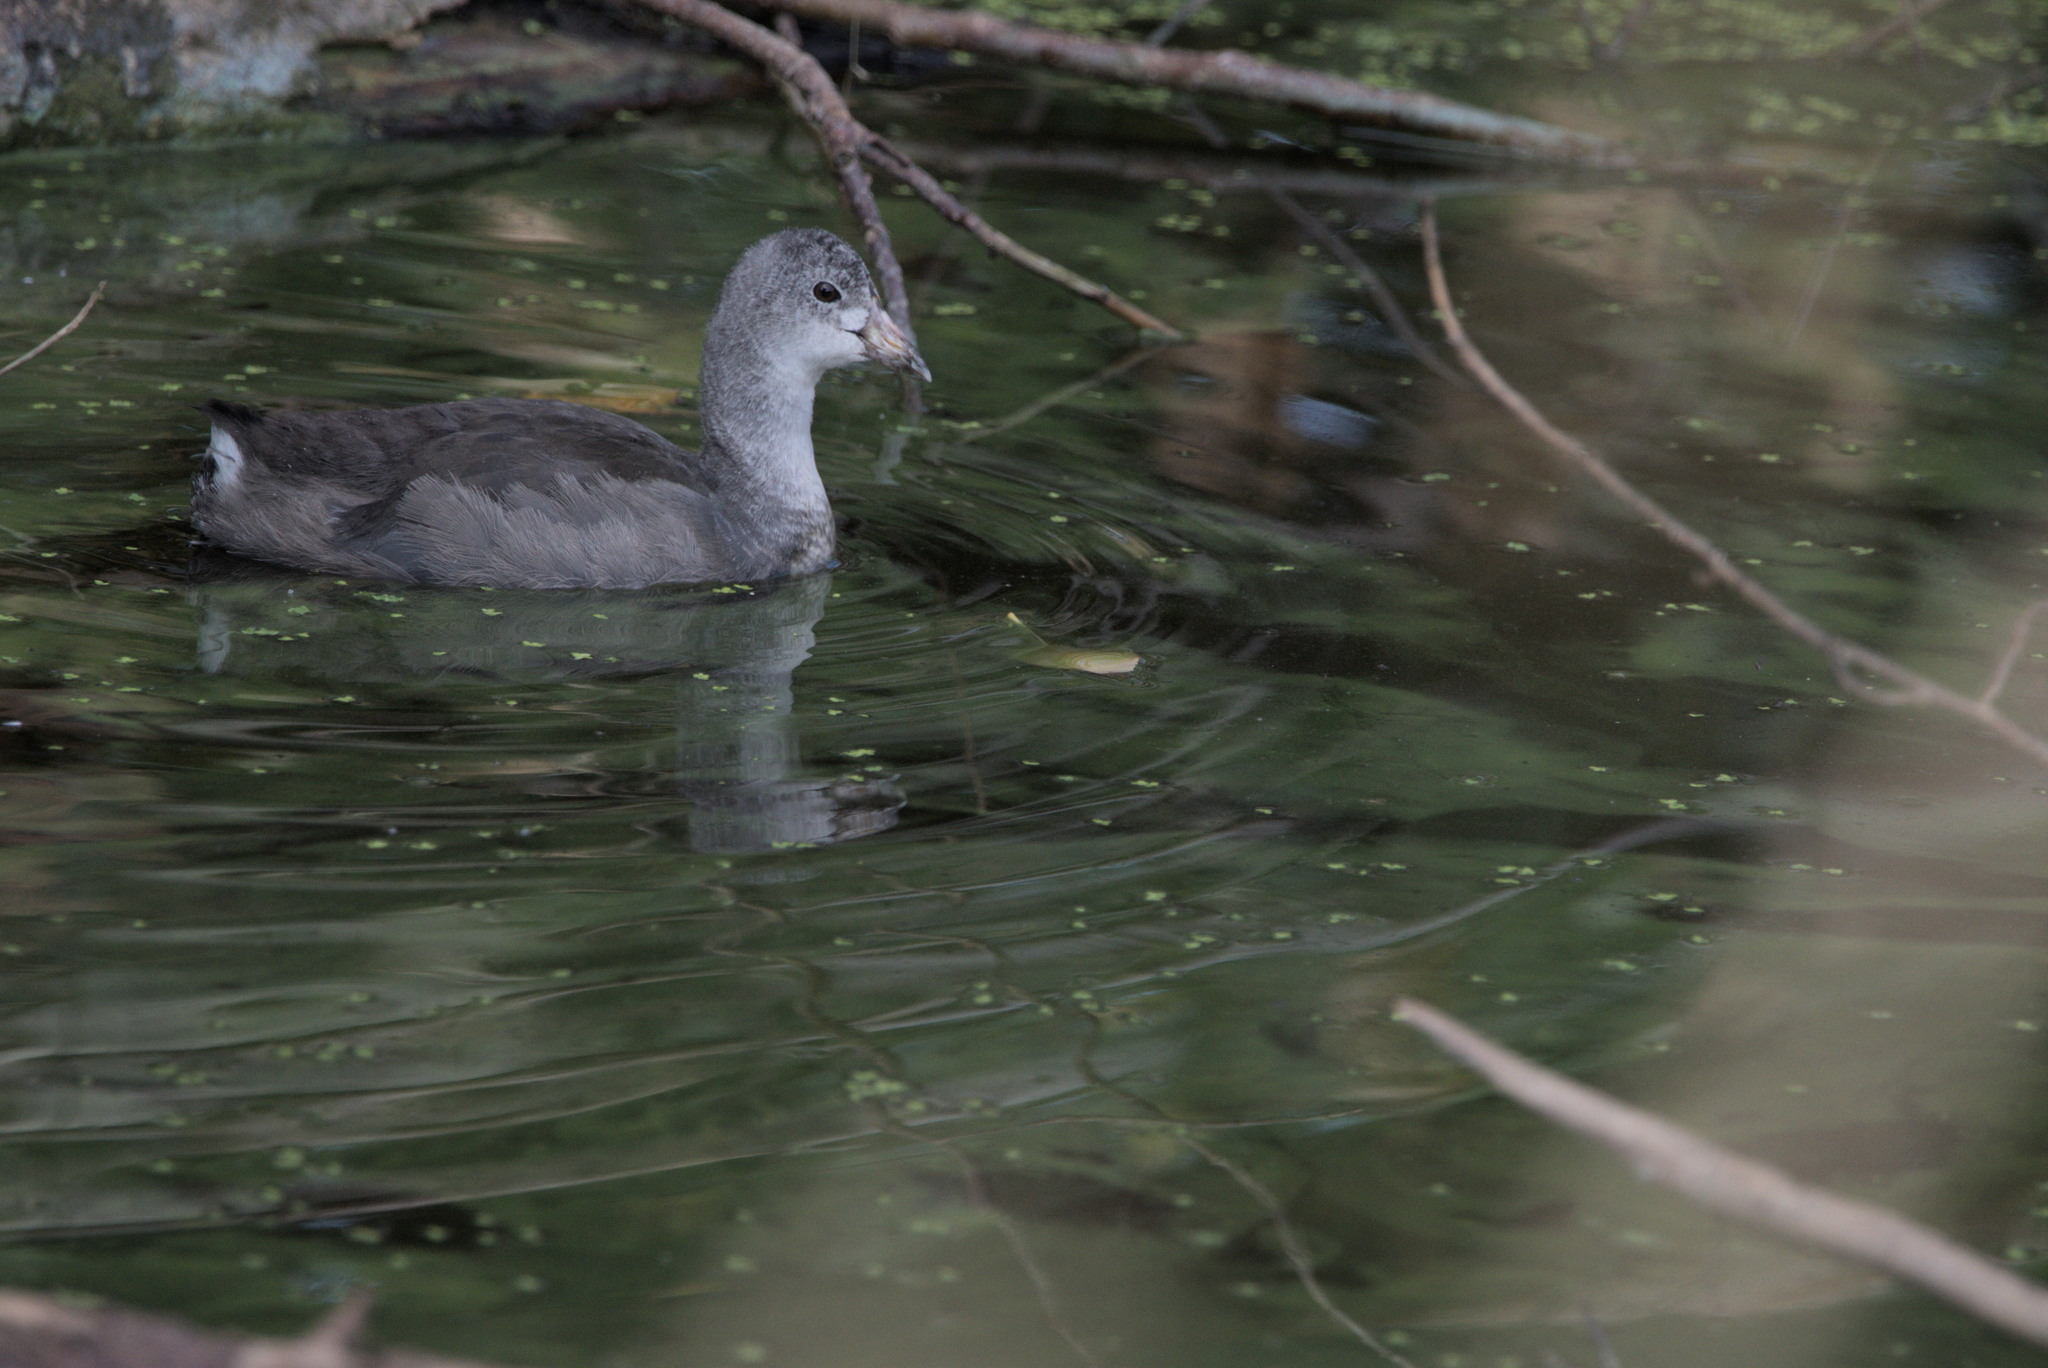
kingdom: Animalia
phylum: Chordata
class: Aves
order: Gruiformes
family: Rallidae
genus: Fulica
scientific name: Fulica americana
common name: American coot
